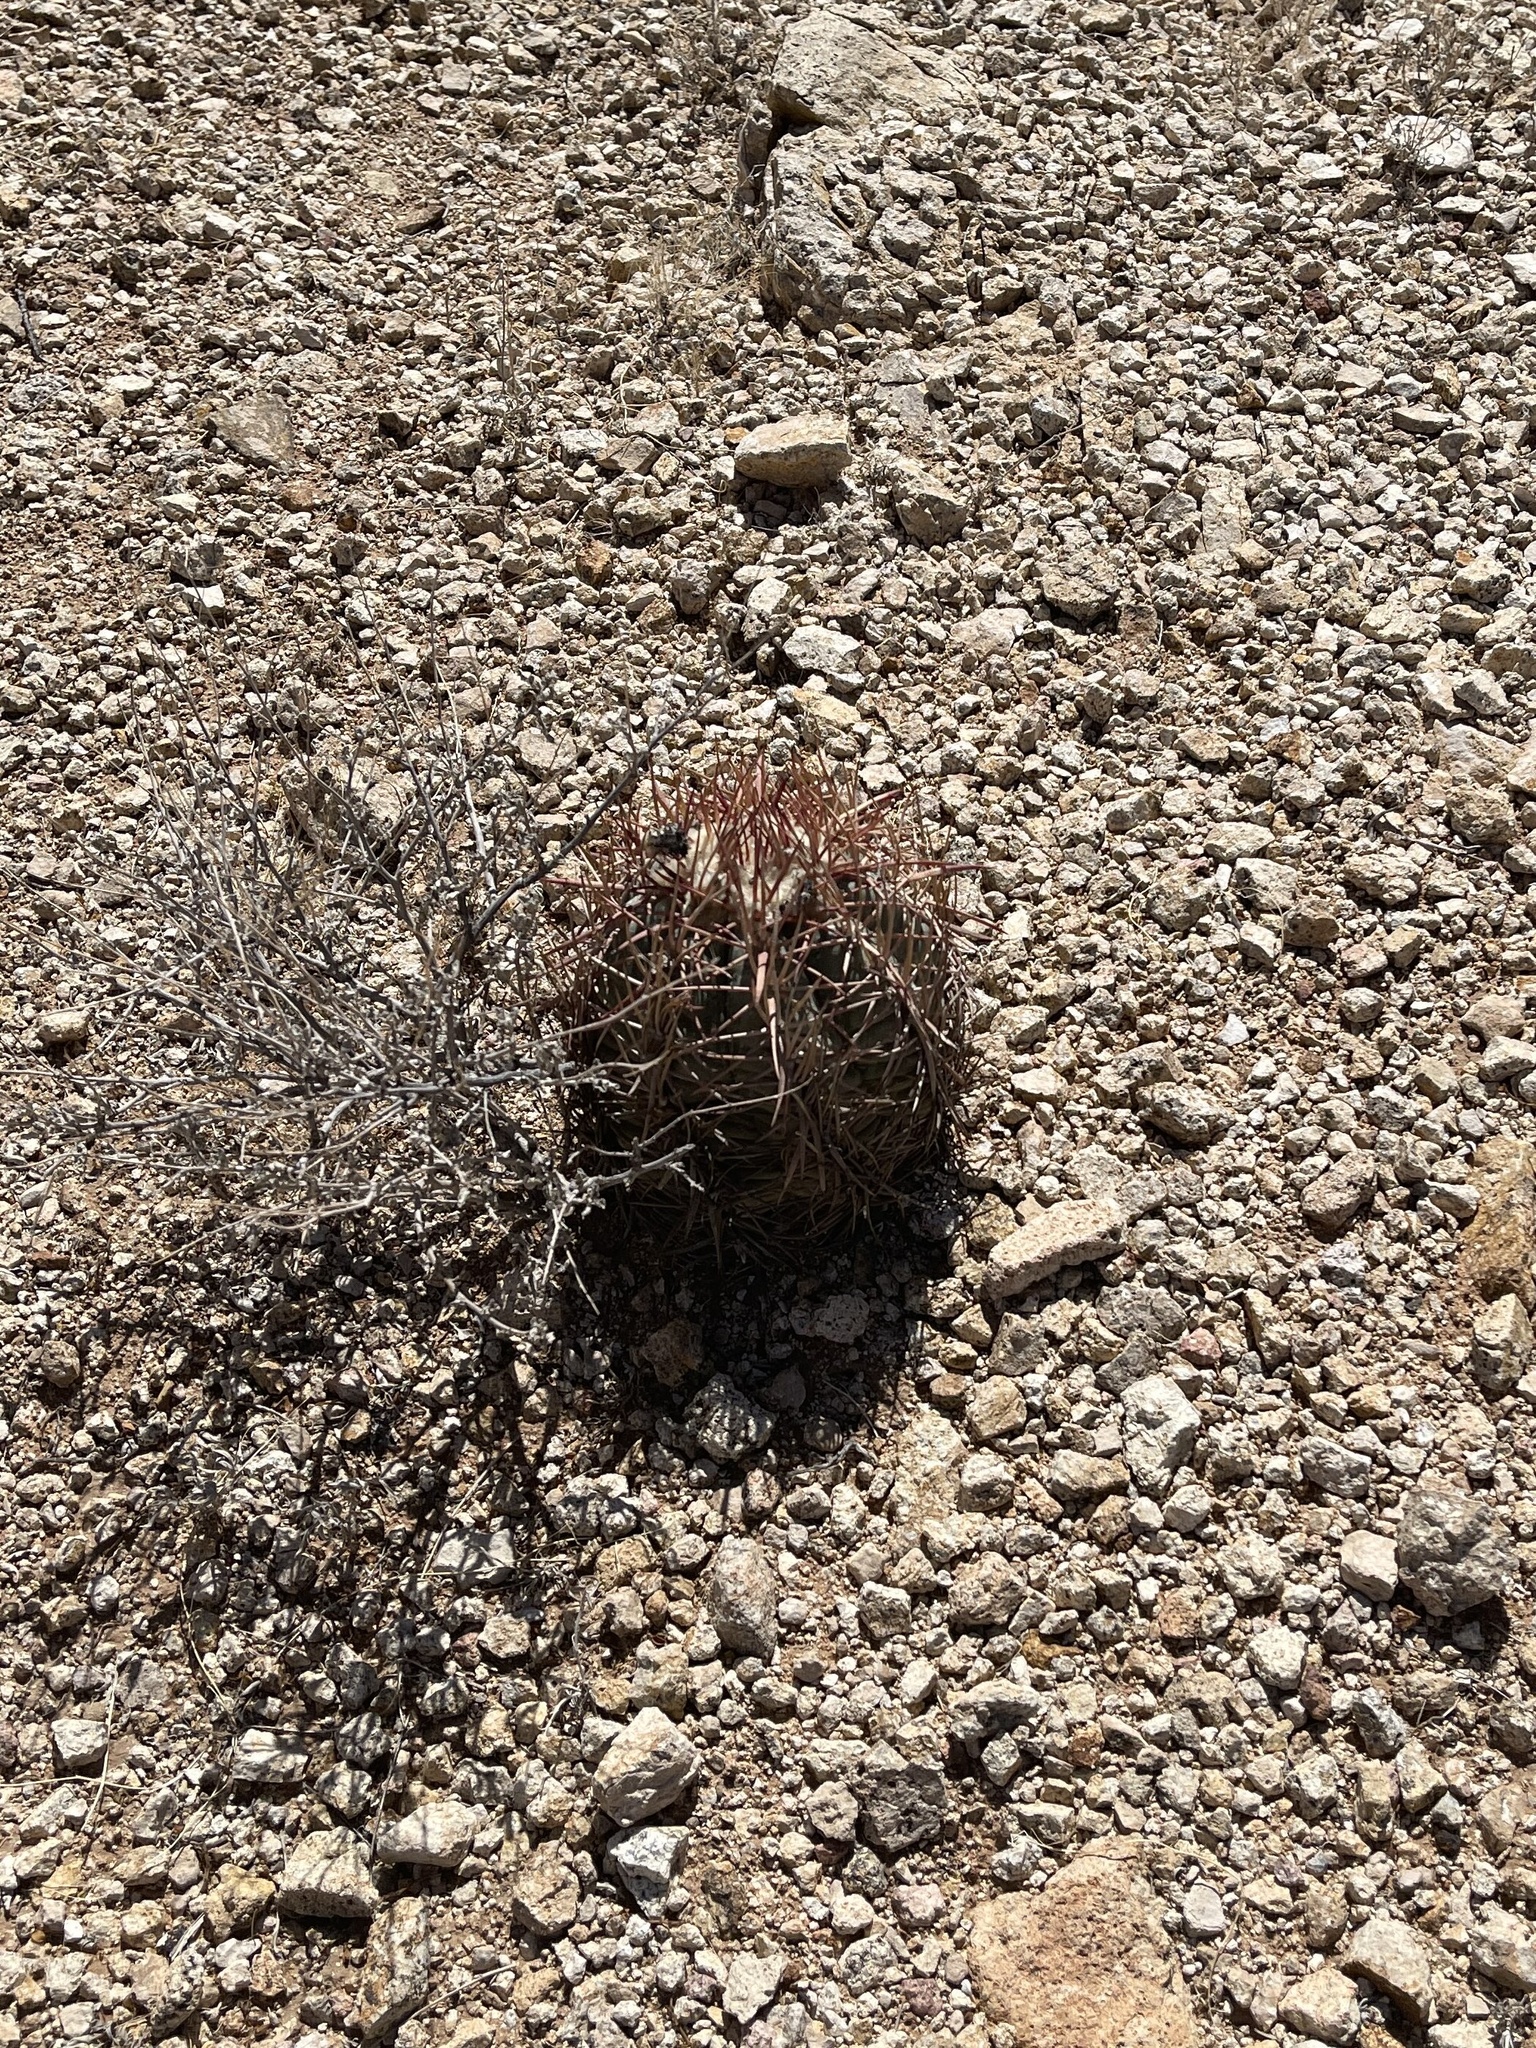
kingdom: Plantae
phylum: Tracheophyta
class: Magnoliopsida
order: Caryophyllales
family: Cactaceae
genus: Echinocactus
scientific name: Echinocactus horizonthalonius
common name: Devilshead
